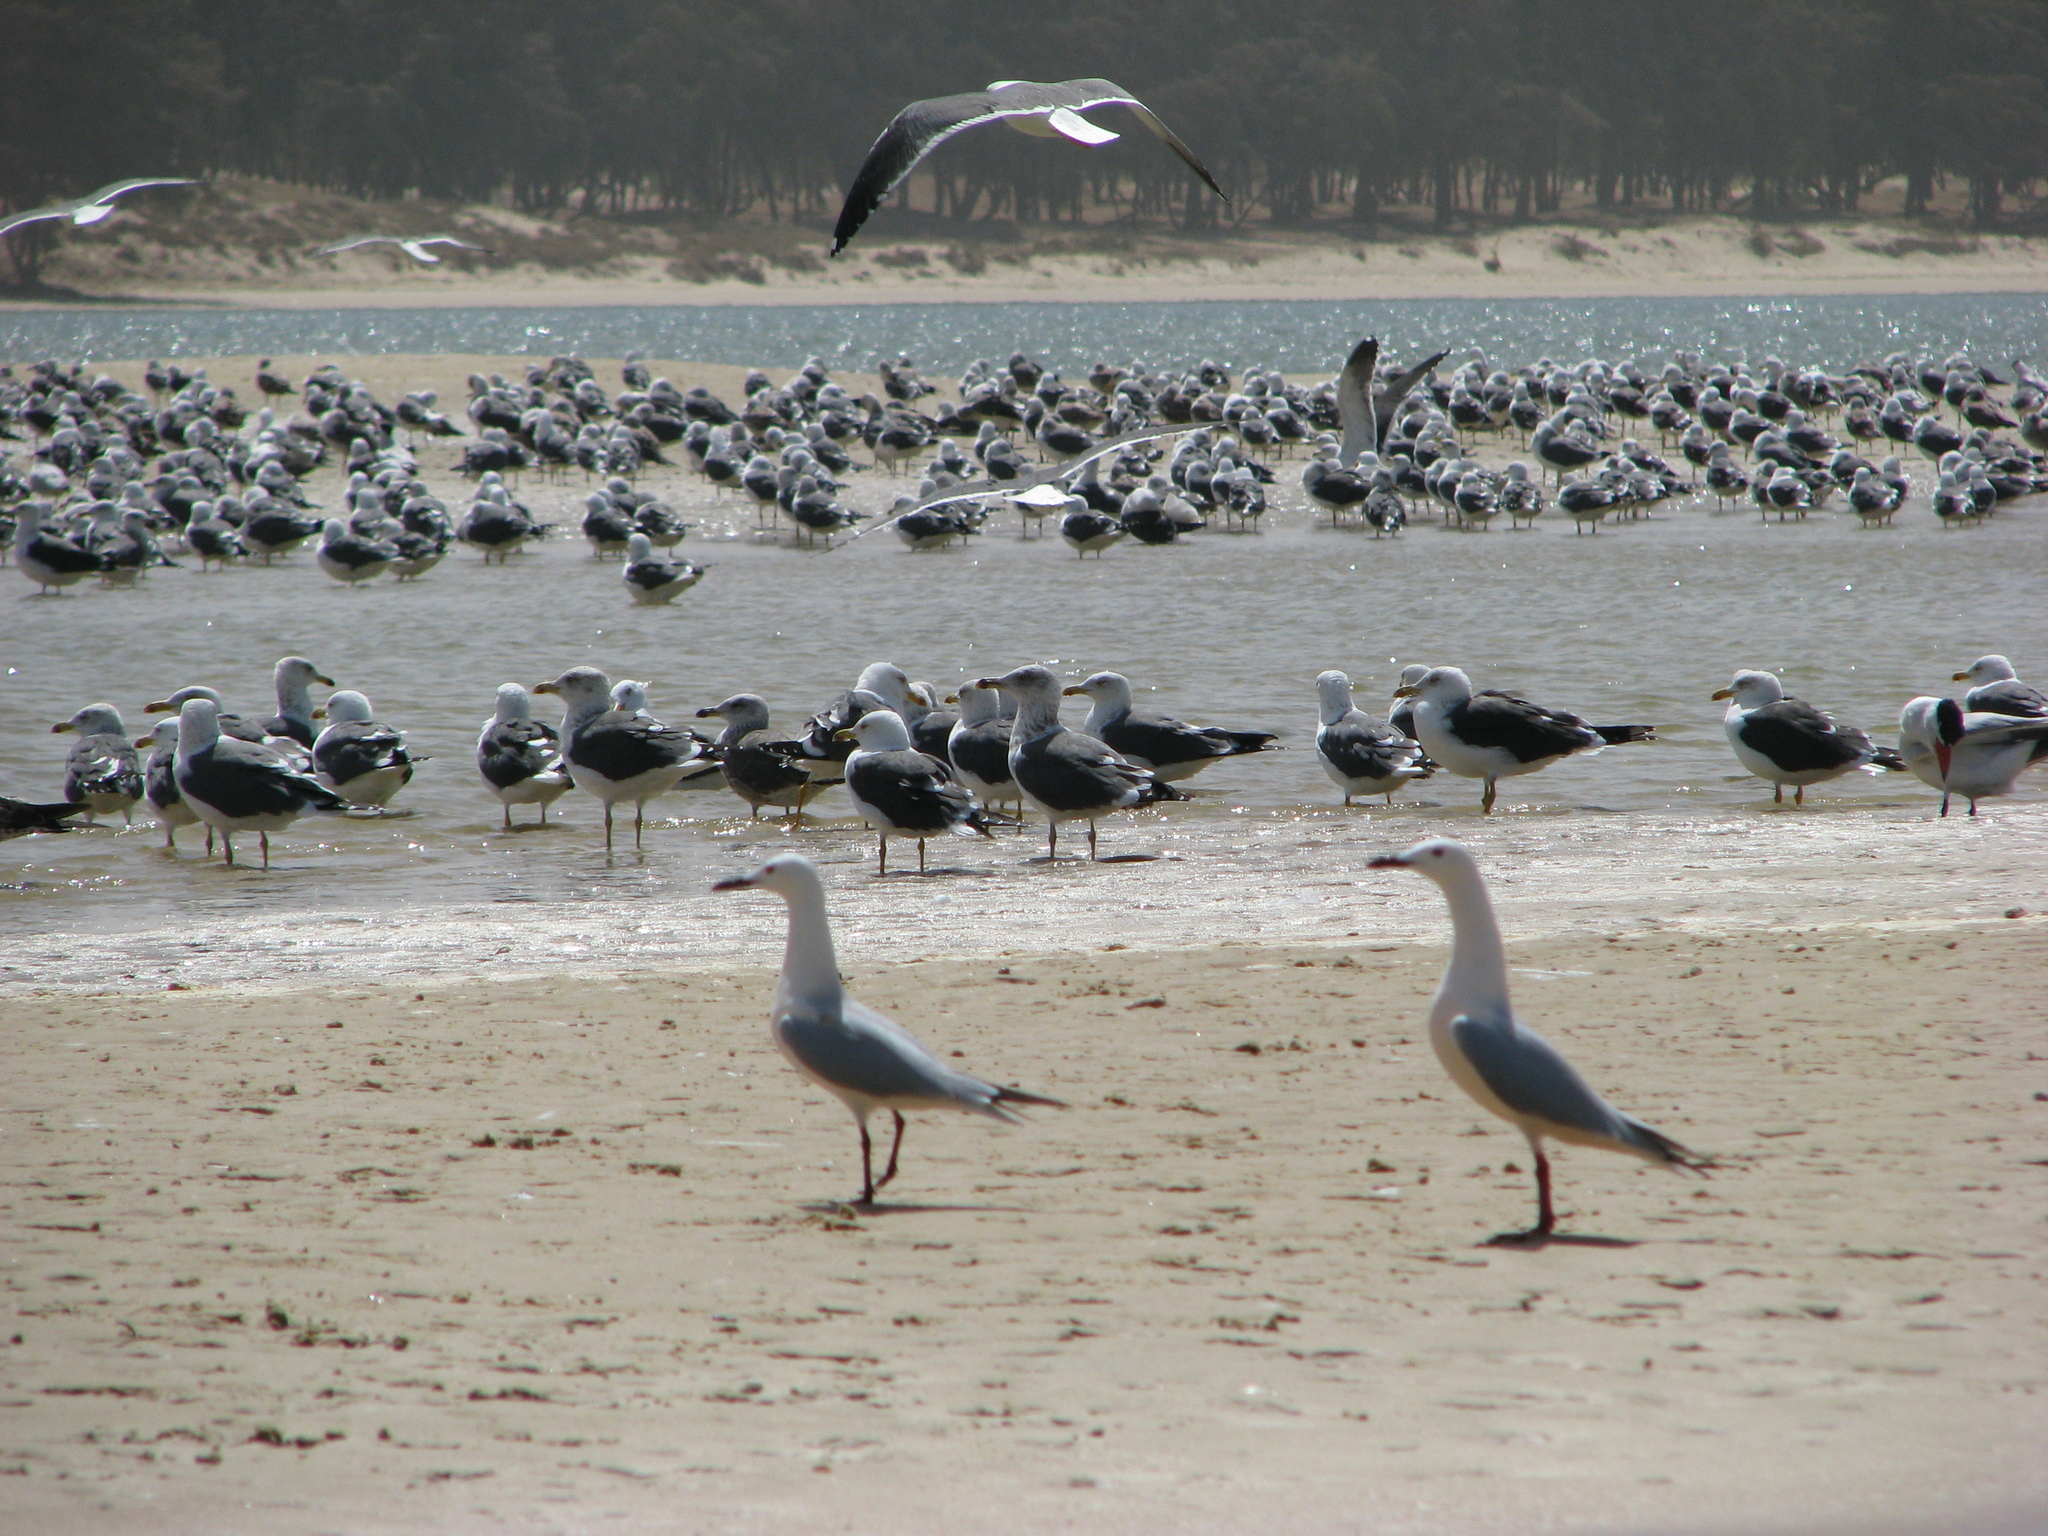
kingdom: Animalia
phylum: Chordata
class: Aves
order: Charadriiformes
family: Laridae
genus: Chroicocephalus
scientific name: Chroicocephalus genei
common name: Slender-billed gull
